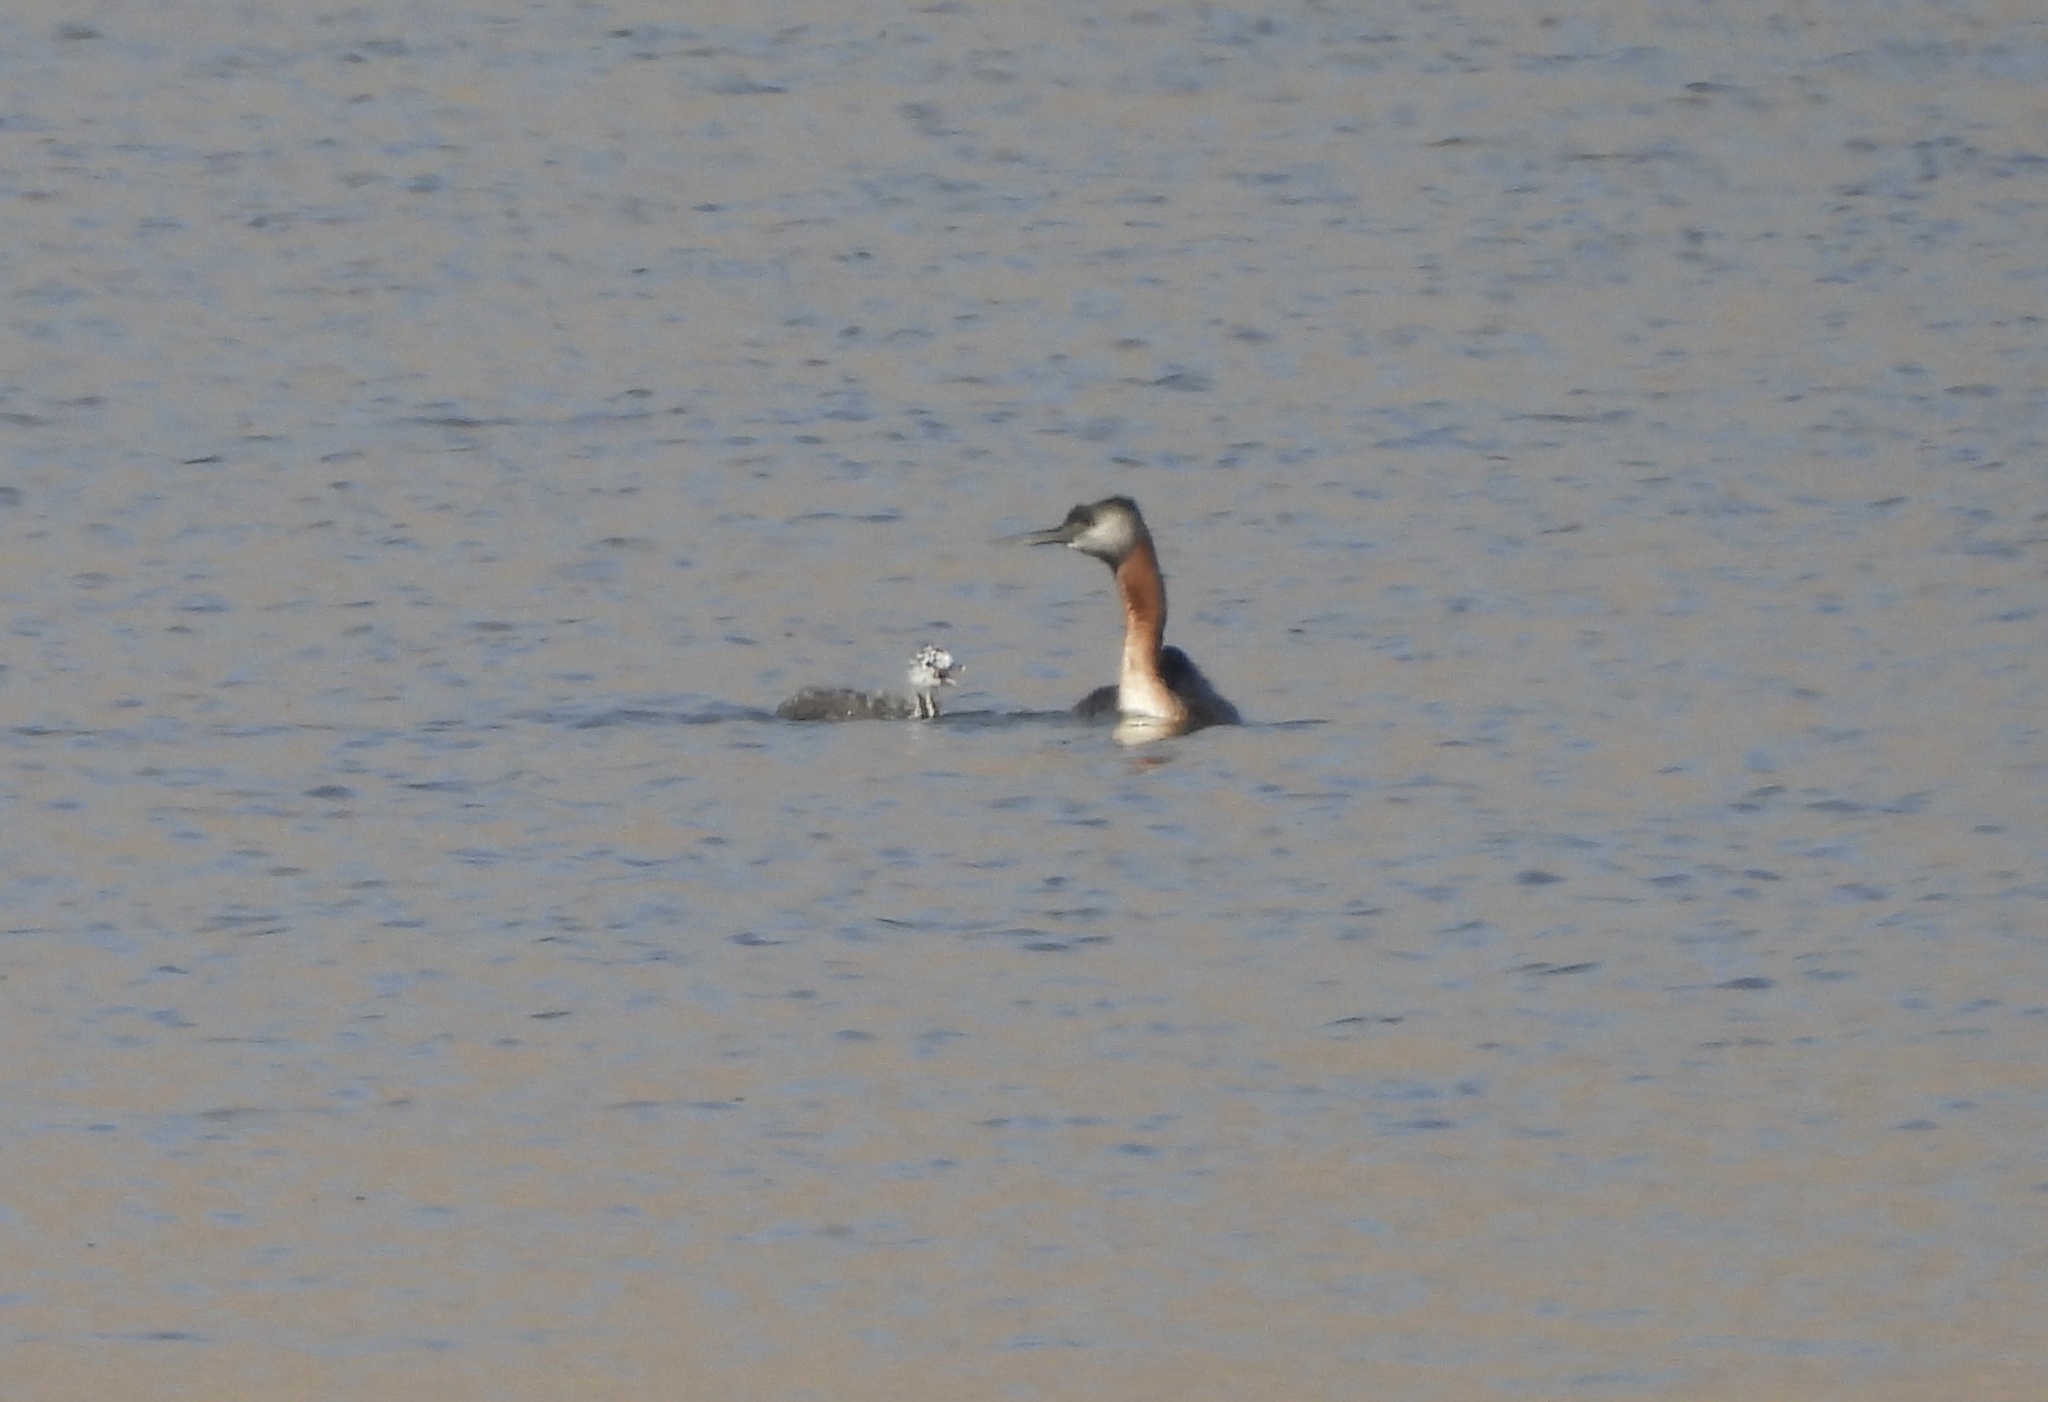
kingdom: Animalia
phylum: Chordata
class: Aves
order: Podicipediformes
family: Podicipedidae
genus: Podiceps
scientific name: Podiceps major
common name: Great grebe
